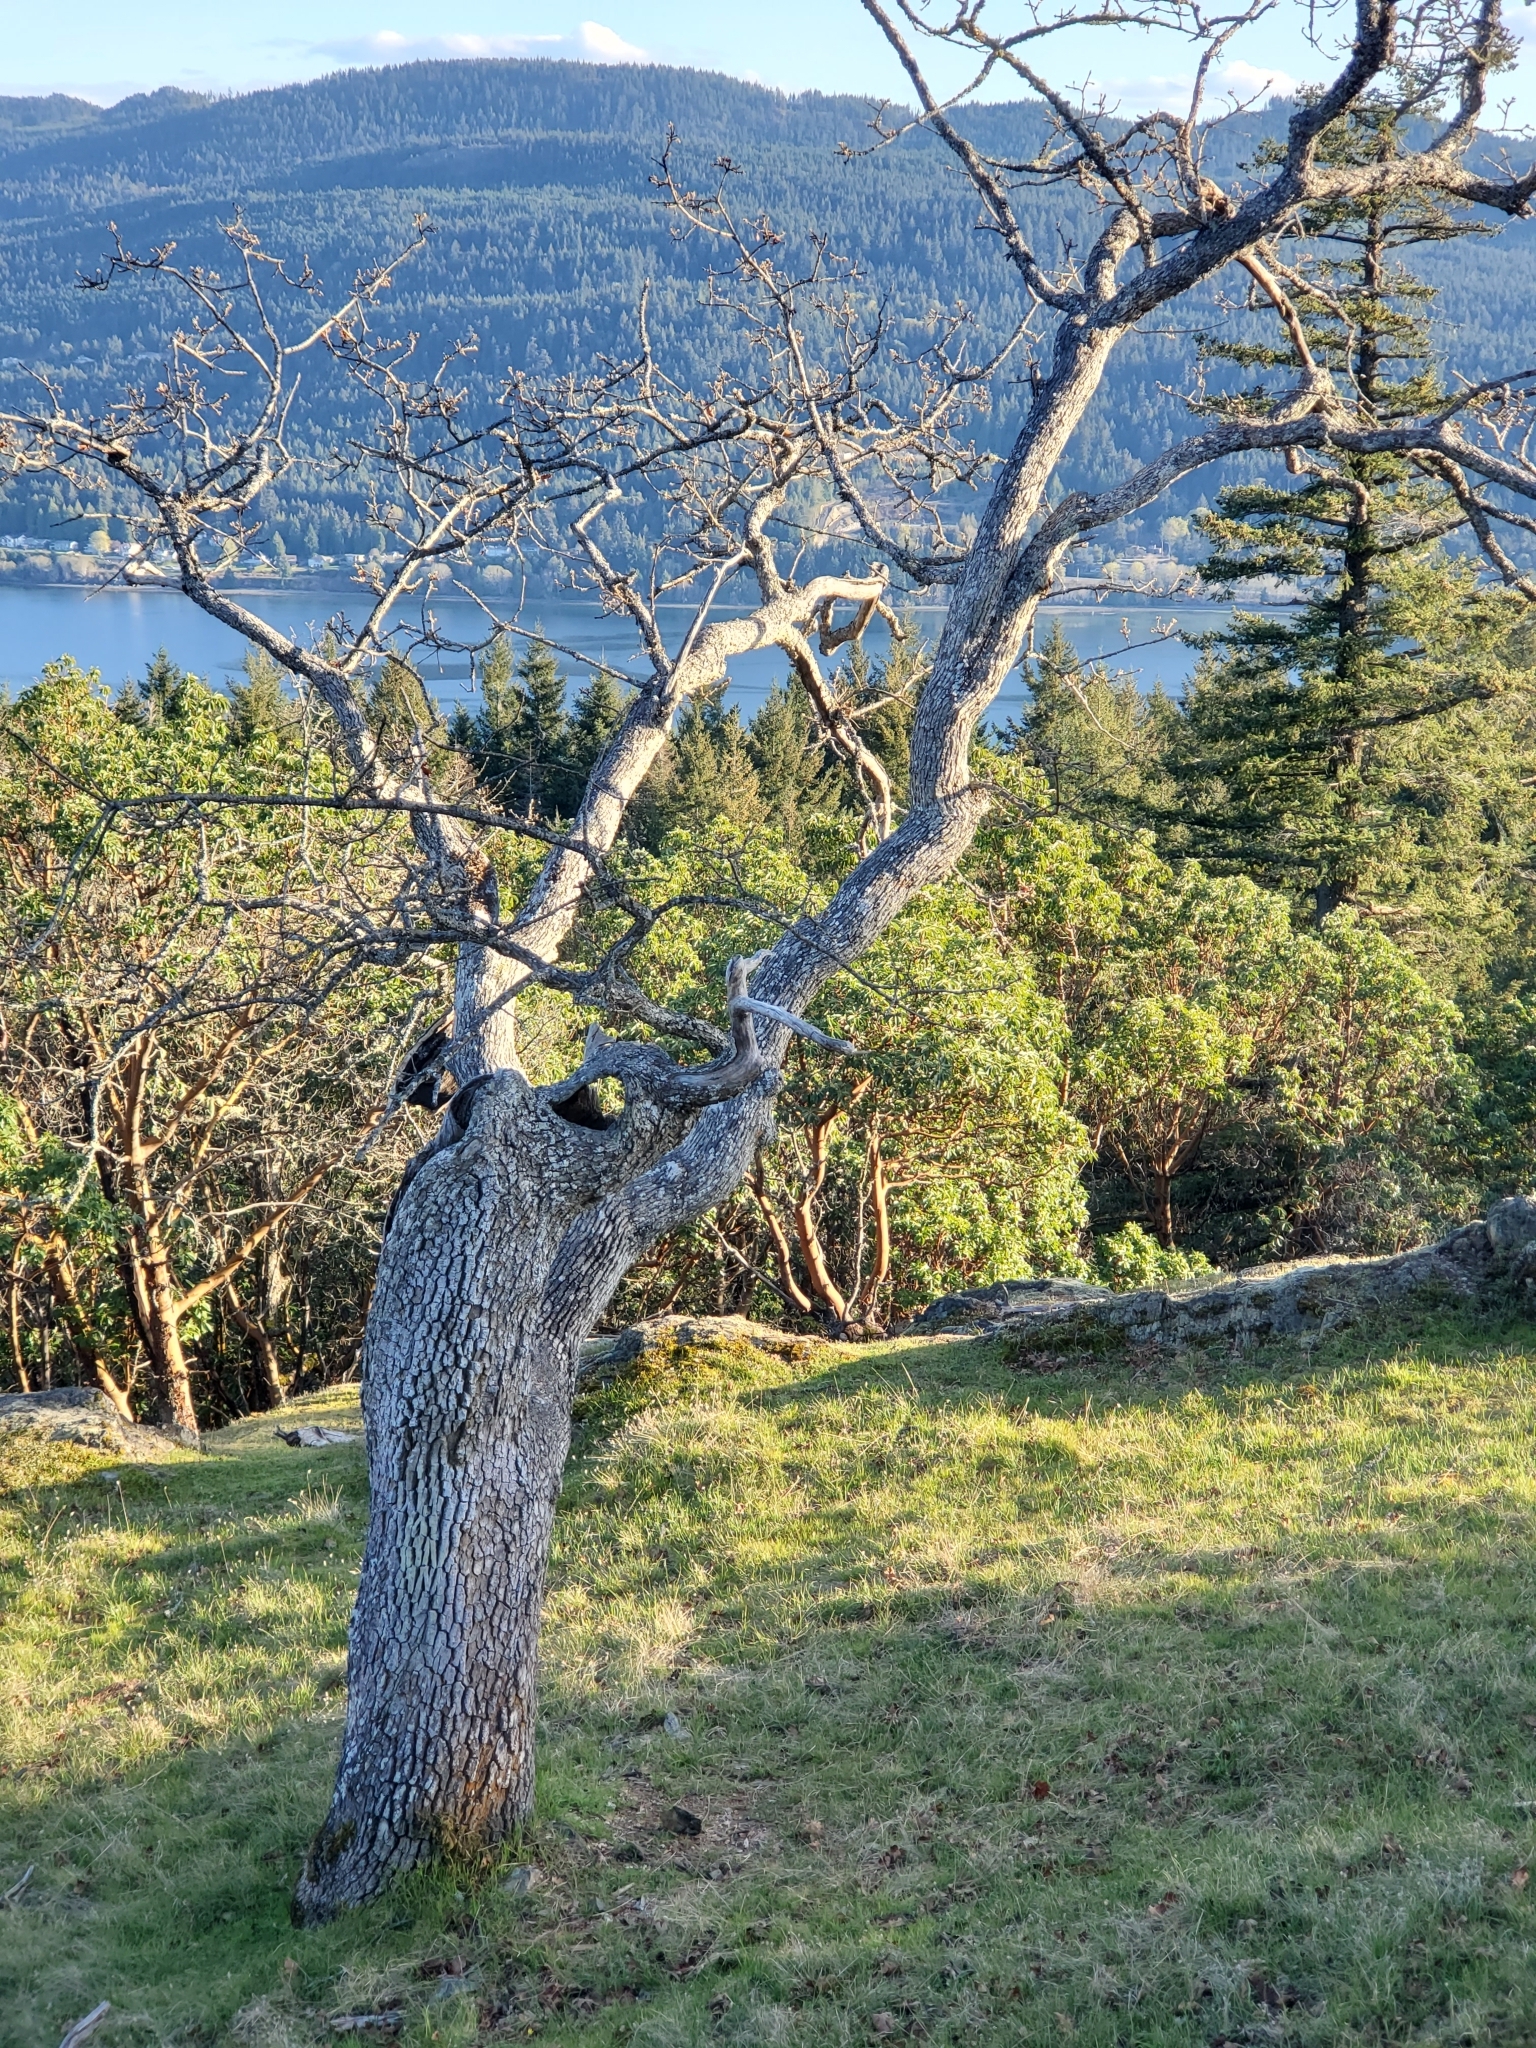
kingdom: Plantae
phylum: Tracheophyta
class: Magnoliopsida
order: Fagales
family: Fagaceae
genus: Quercus
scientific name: Quercus garryana
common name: Garry oak
